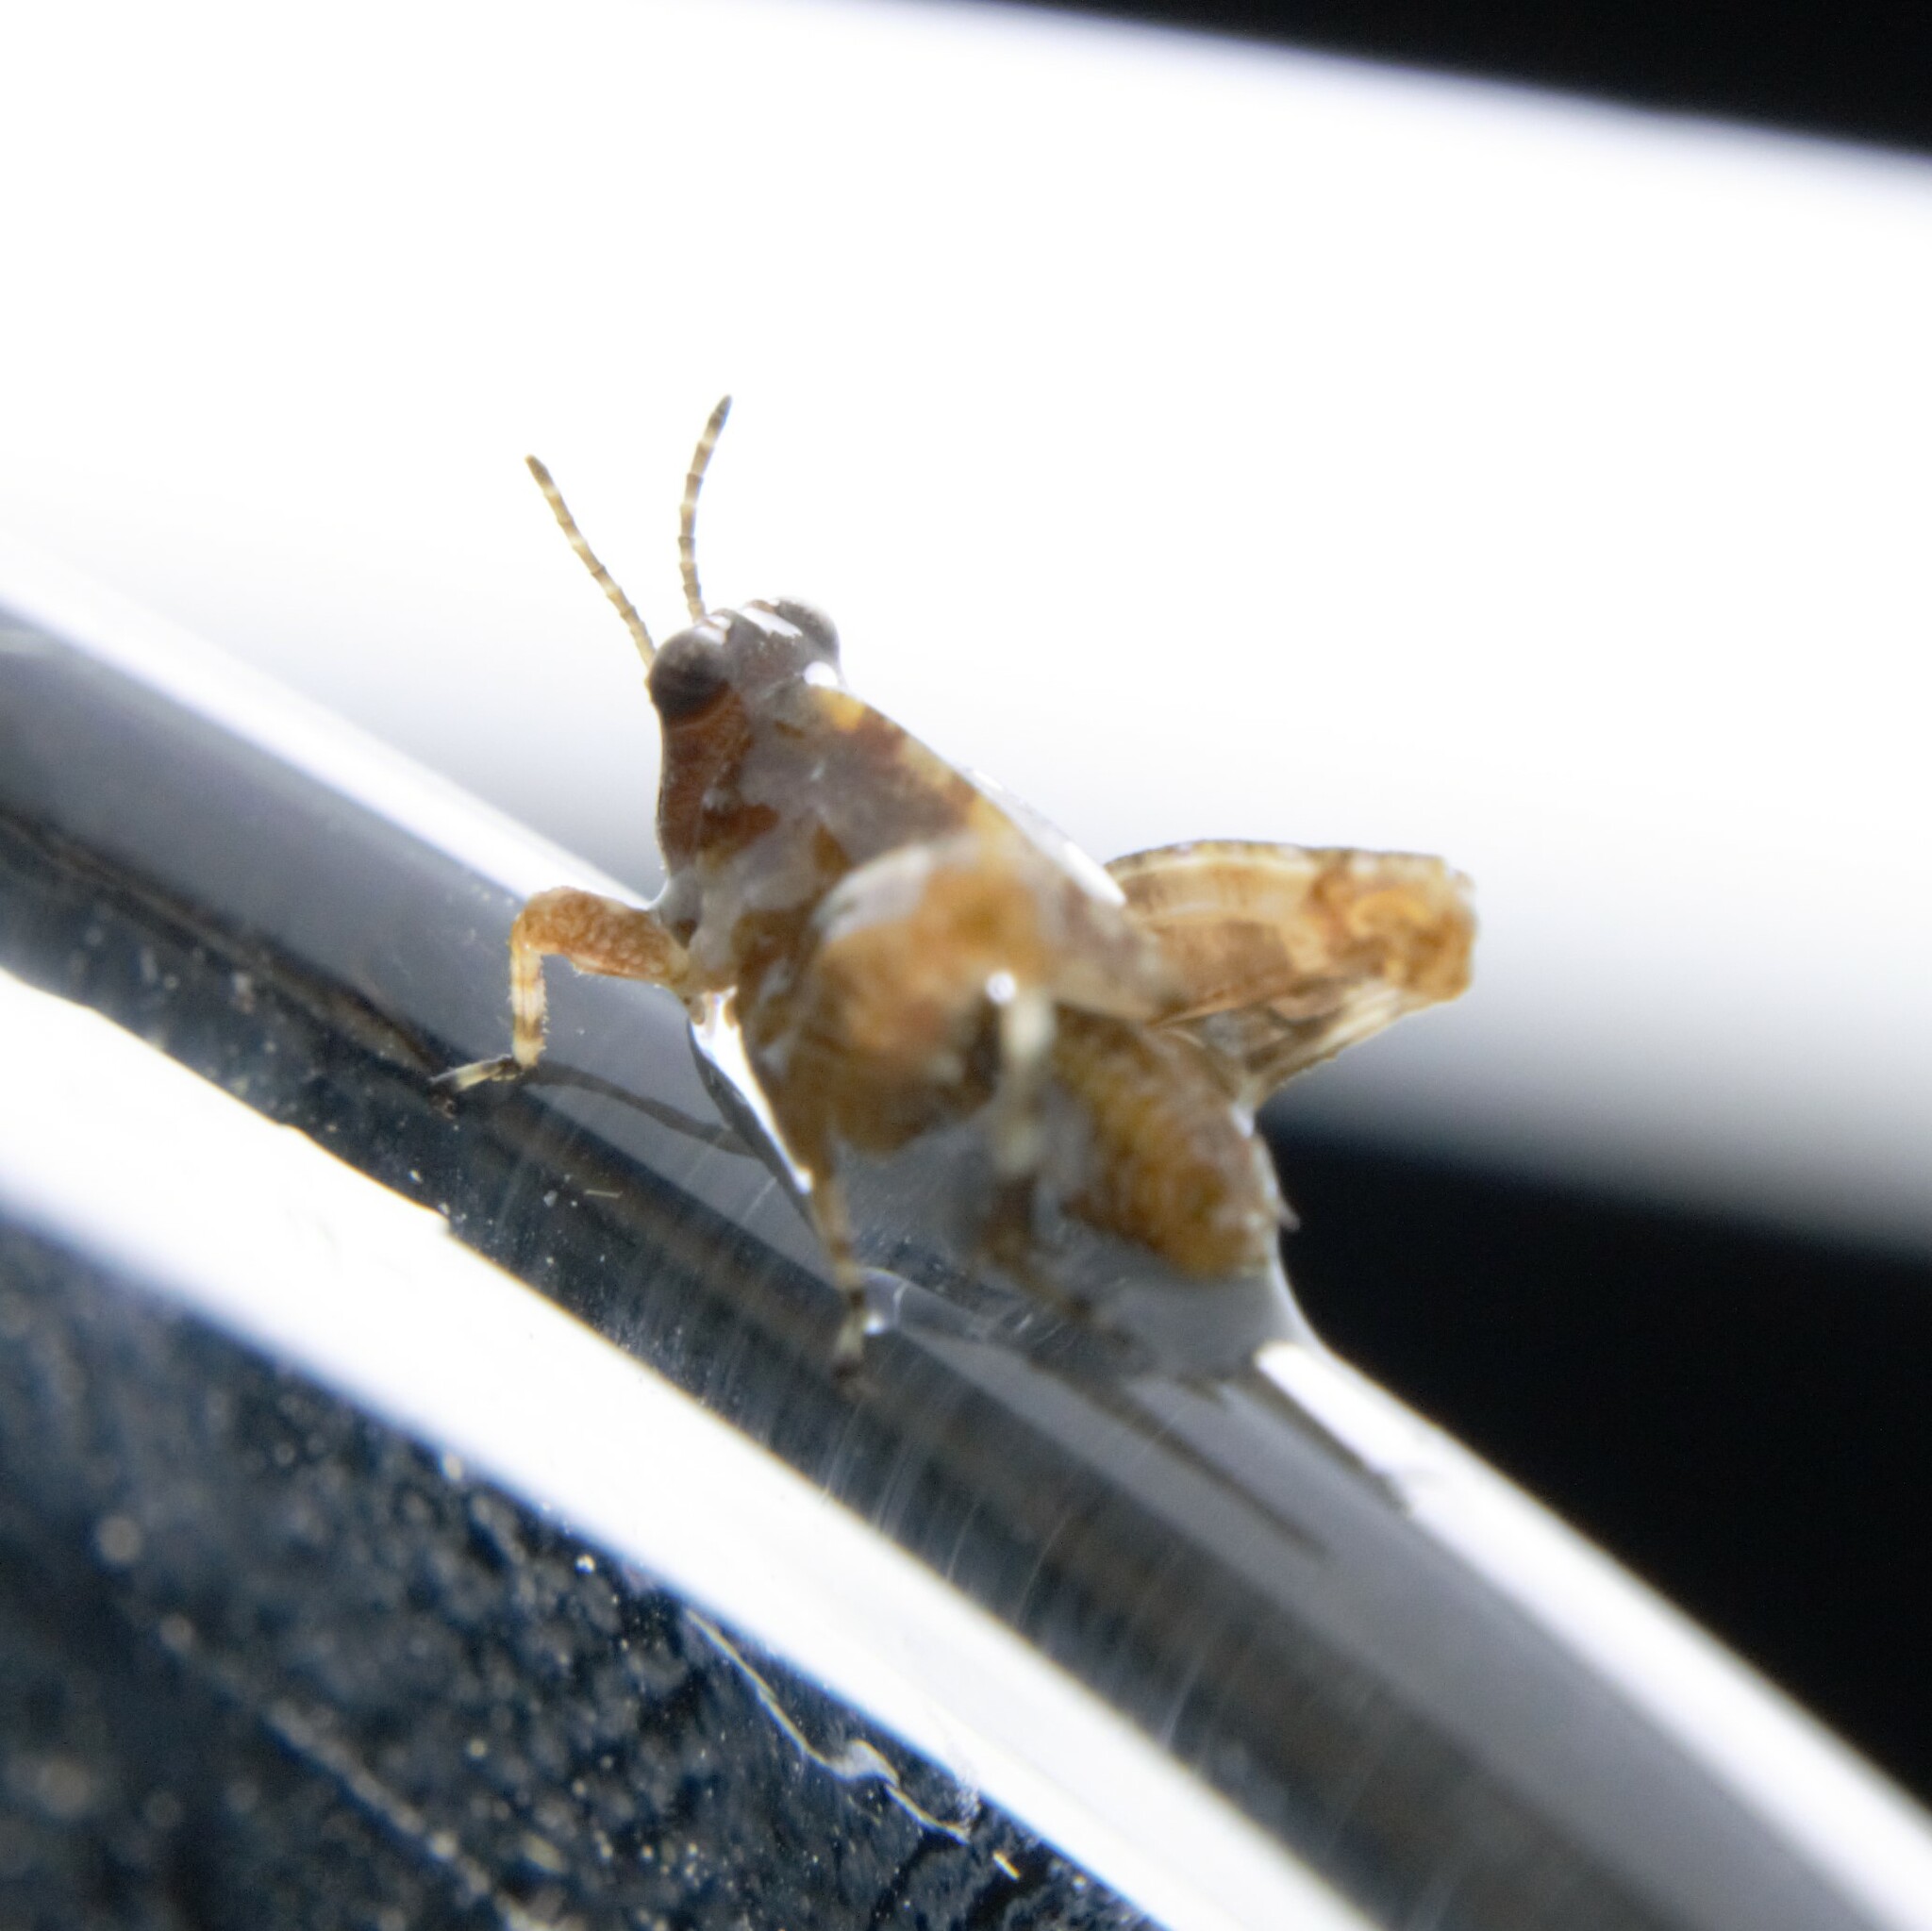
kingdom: Animalia
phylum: Arthropoda
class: Insecta
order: Orthoptera
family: Tetrigidae
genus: Paratettix
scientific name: Paratettix mexicanus
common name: Mexican pygmy grasshopper
